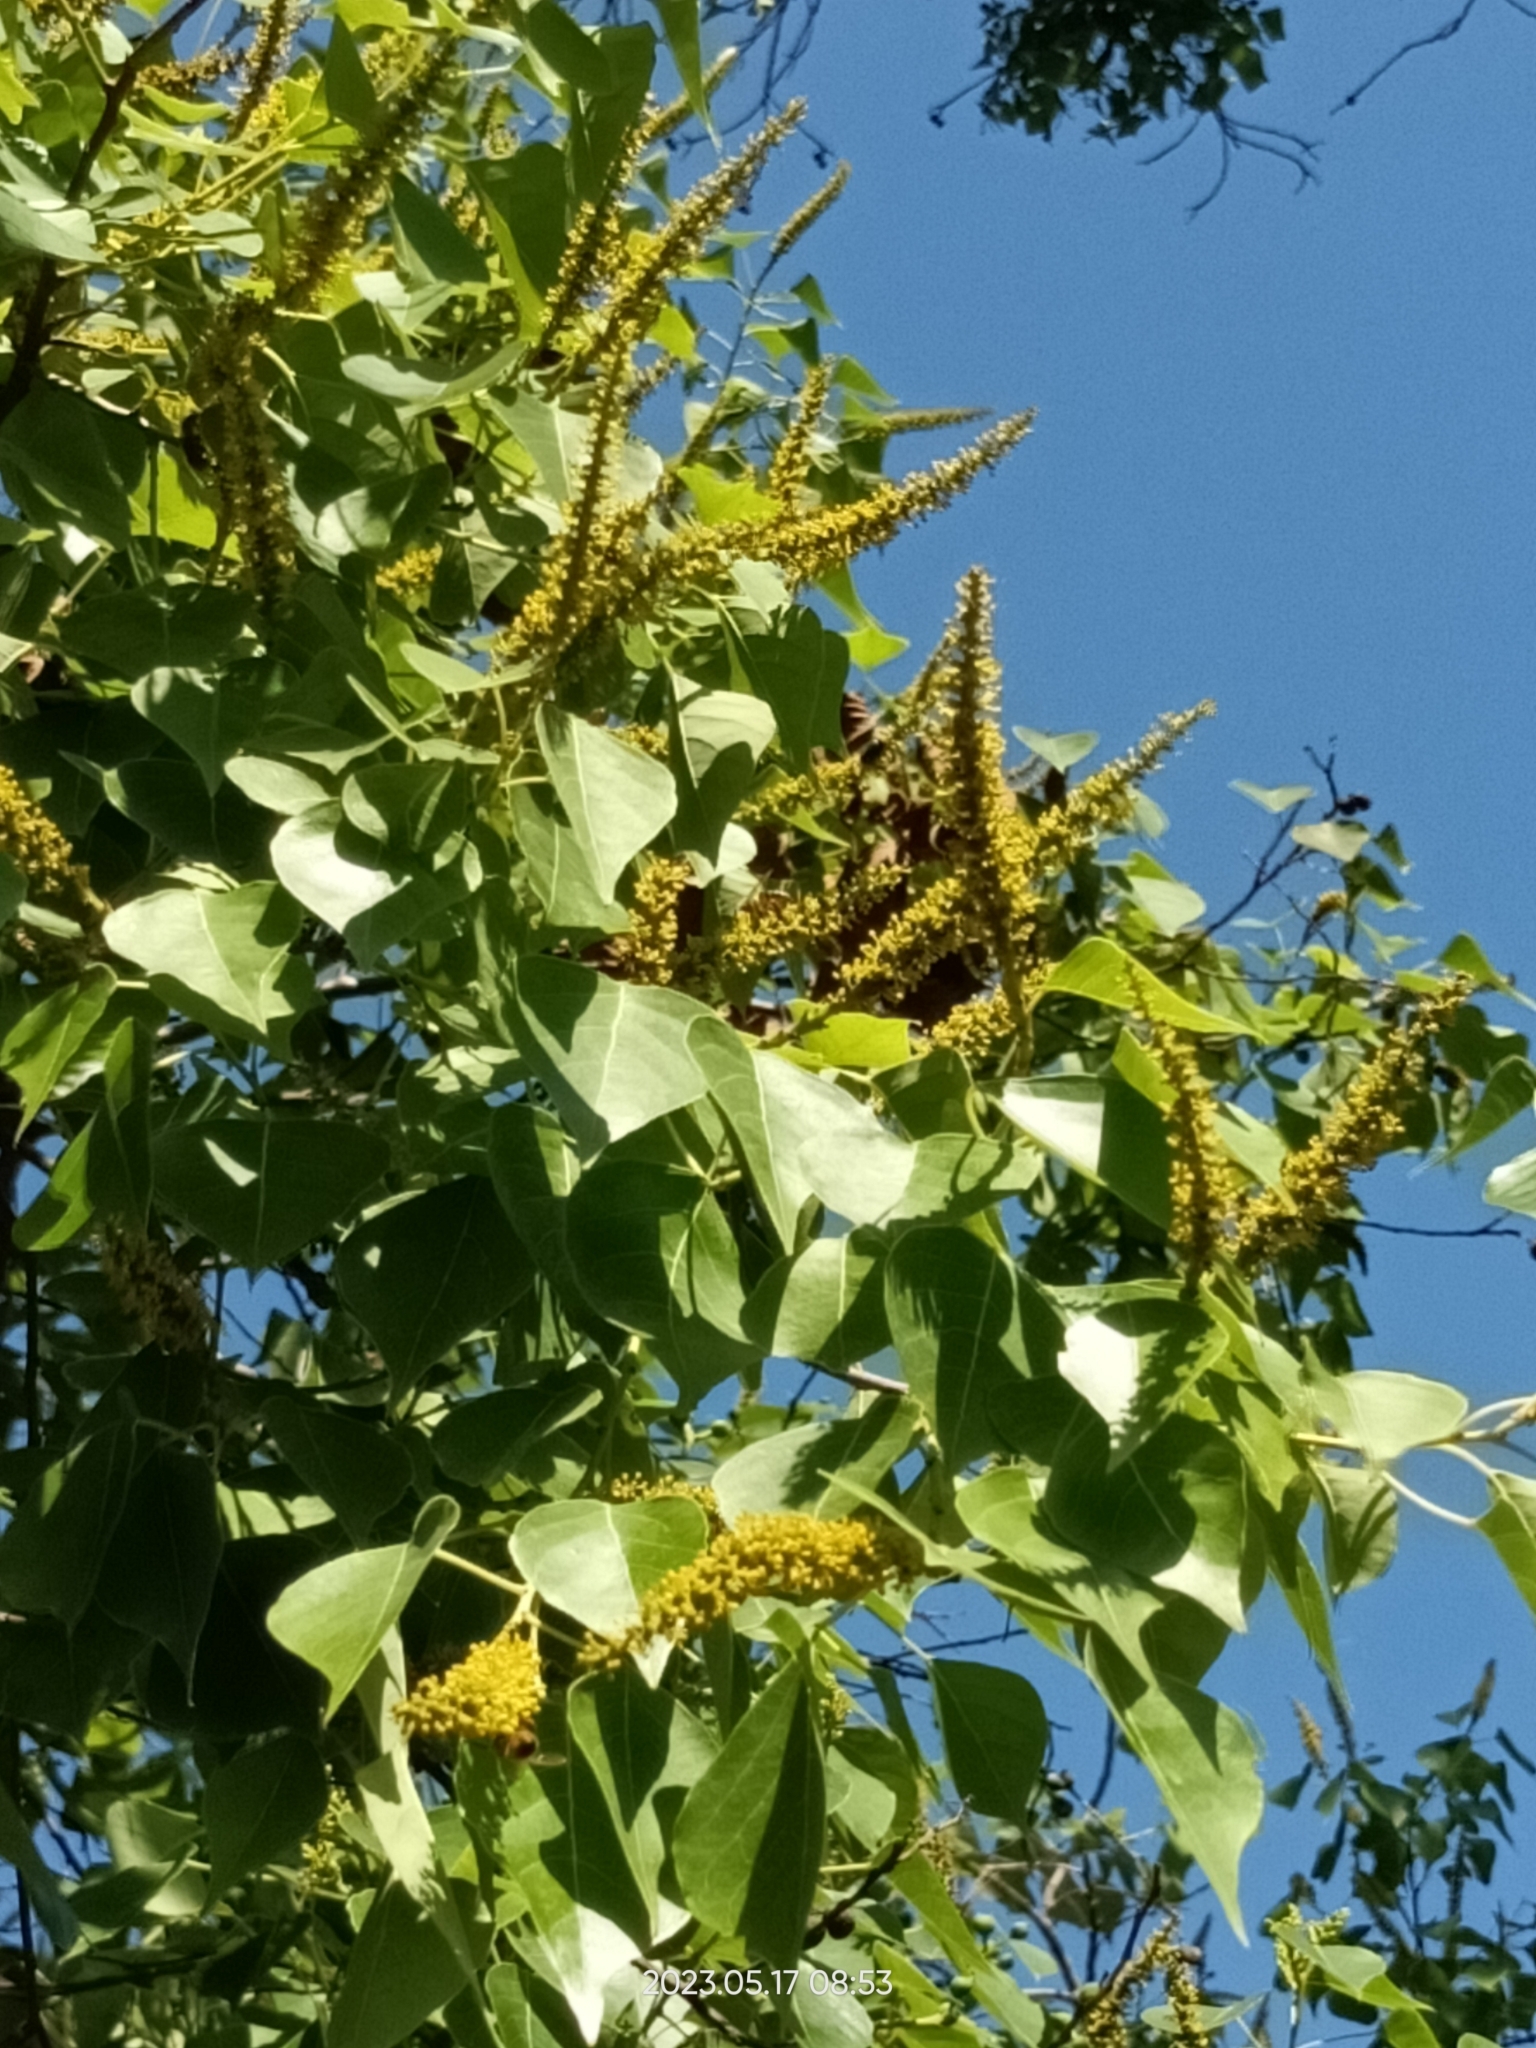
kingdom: Plantae
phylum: Tracheophyta
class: Magnoliopsida
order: Malpighiales
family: Euphorbiaceae
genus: Triadica
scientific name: Triadica sebifera
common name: Chinese tallow
